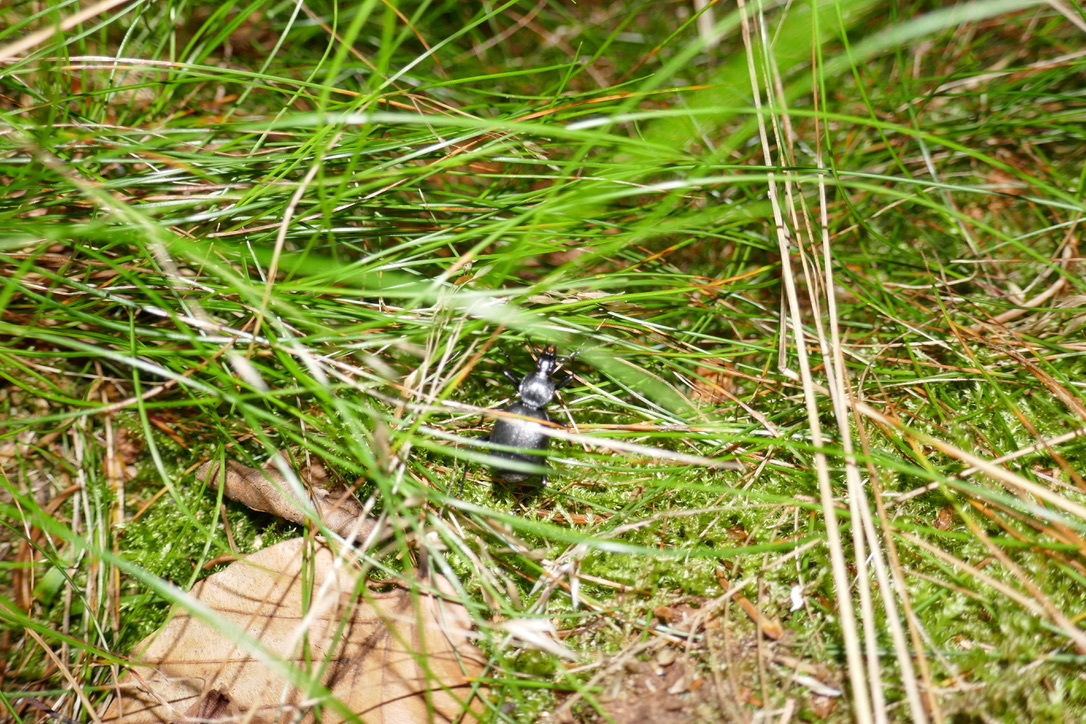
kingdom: Animalia
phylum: Arthropoda
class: Insecta
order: Coleoptera
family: Carabidae
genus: Cychrus
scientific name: Cychrus caraboides
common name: Snail hunter
